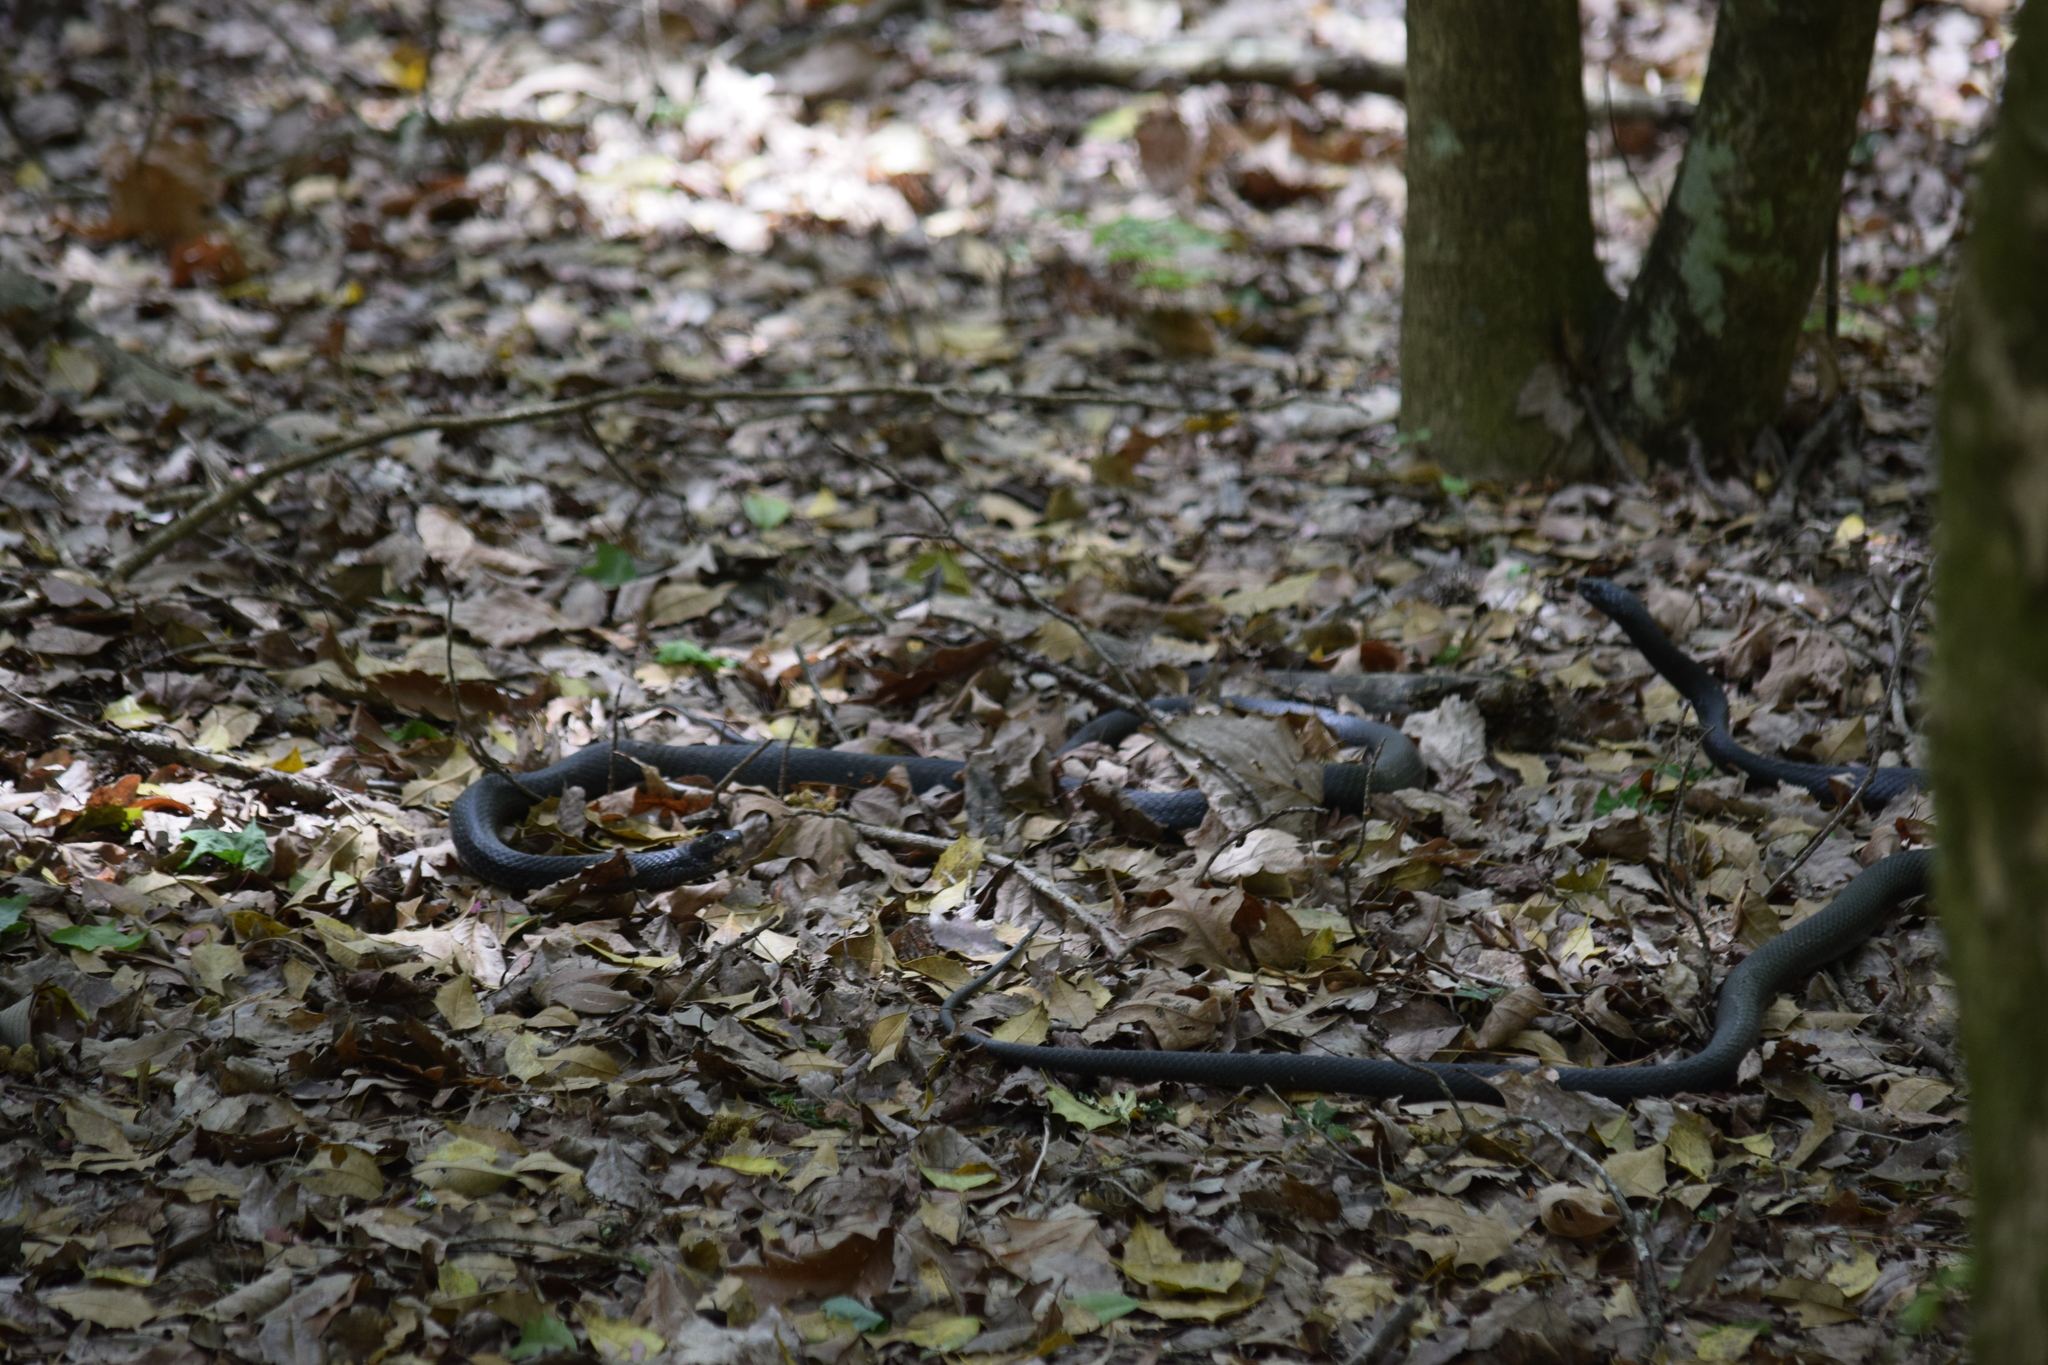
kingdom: Animalia
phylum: Chordata
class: Squamata
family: Colubridae
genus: Coluber
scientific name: Coluber constrictor
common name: Eastern racer
